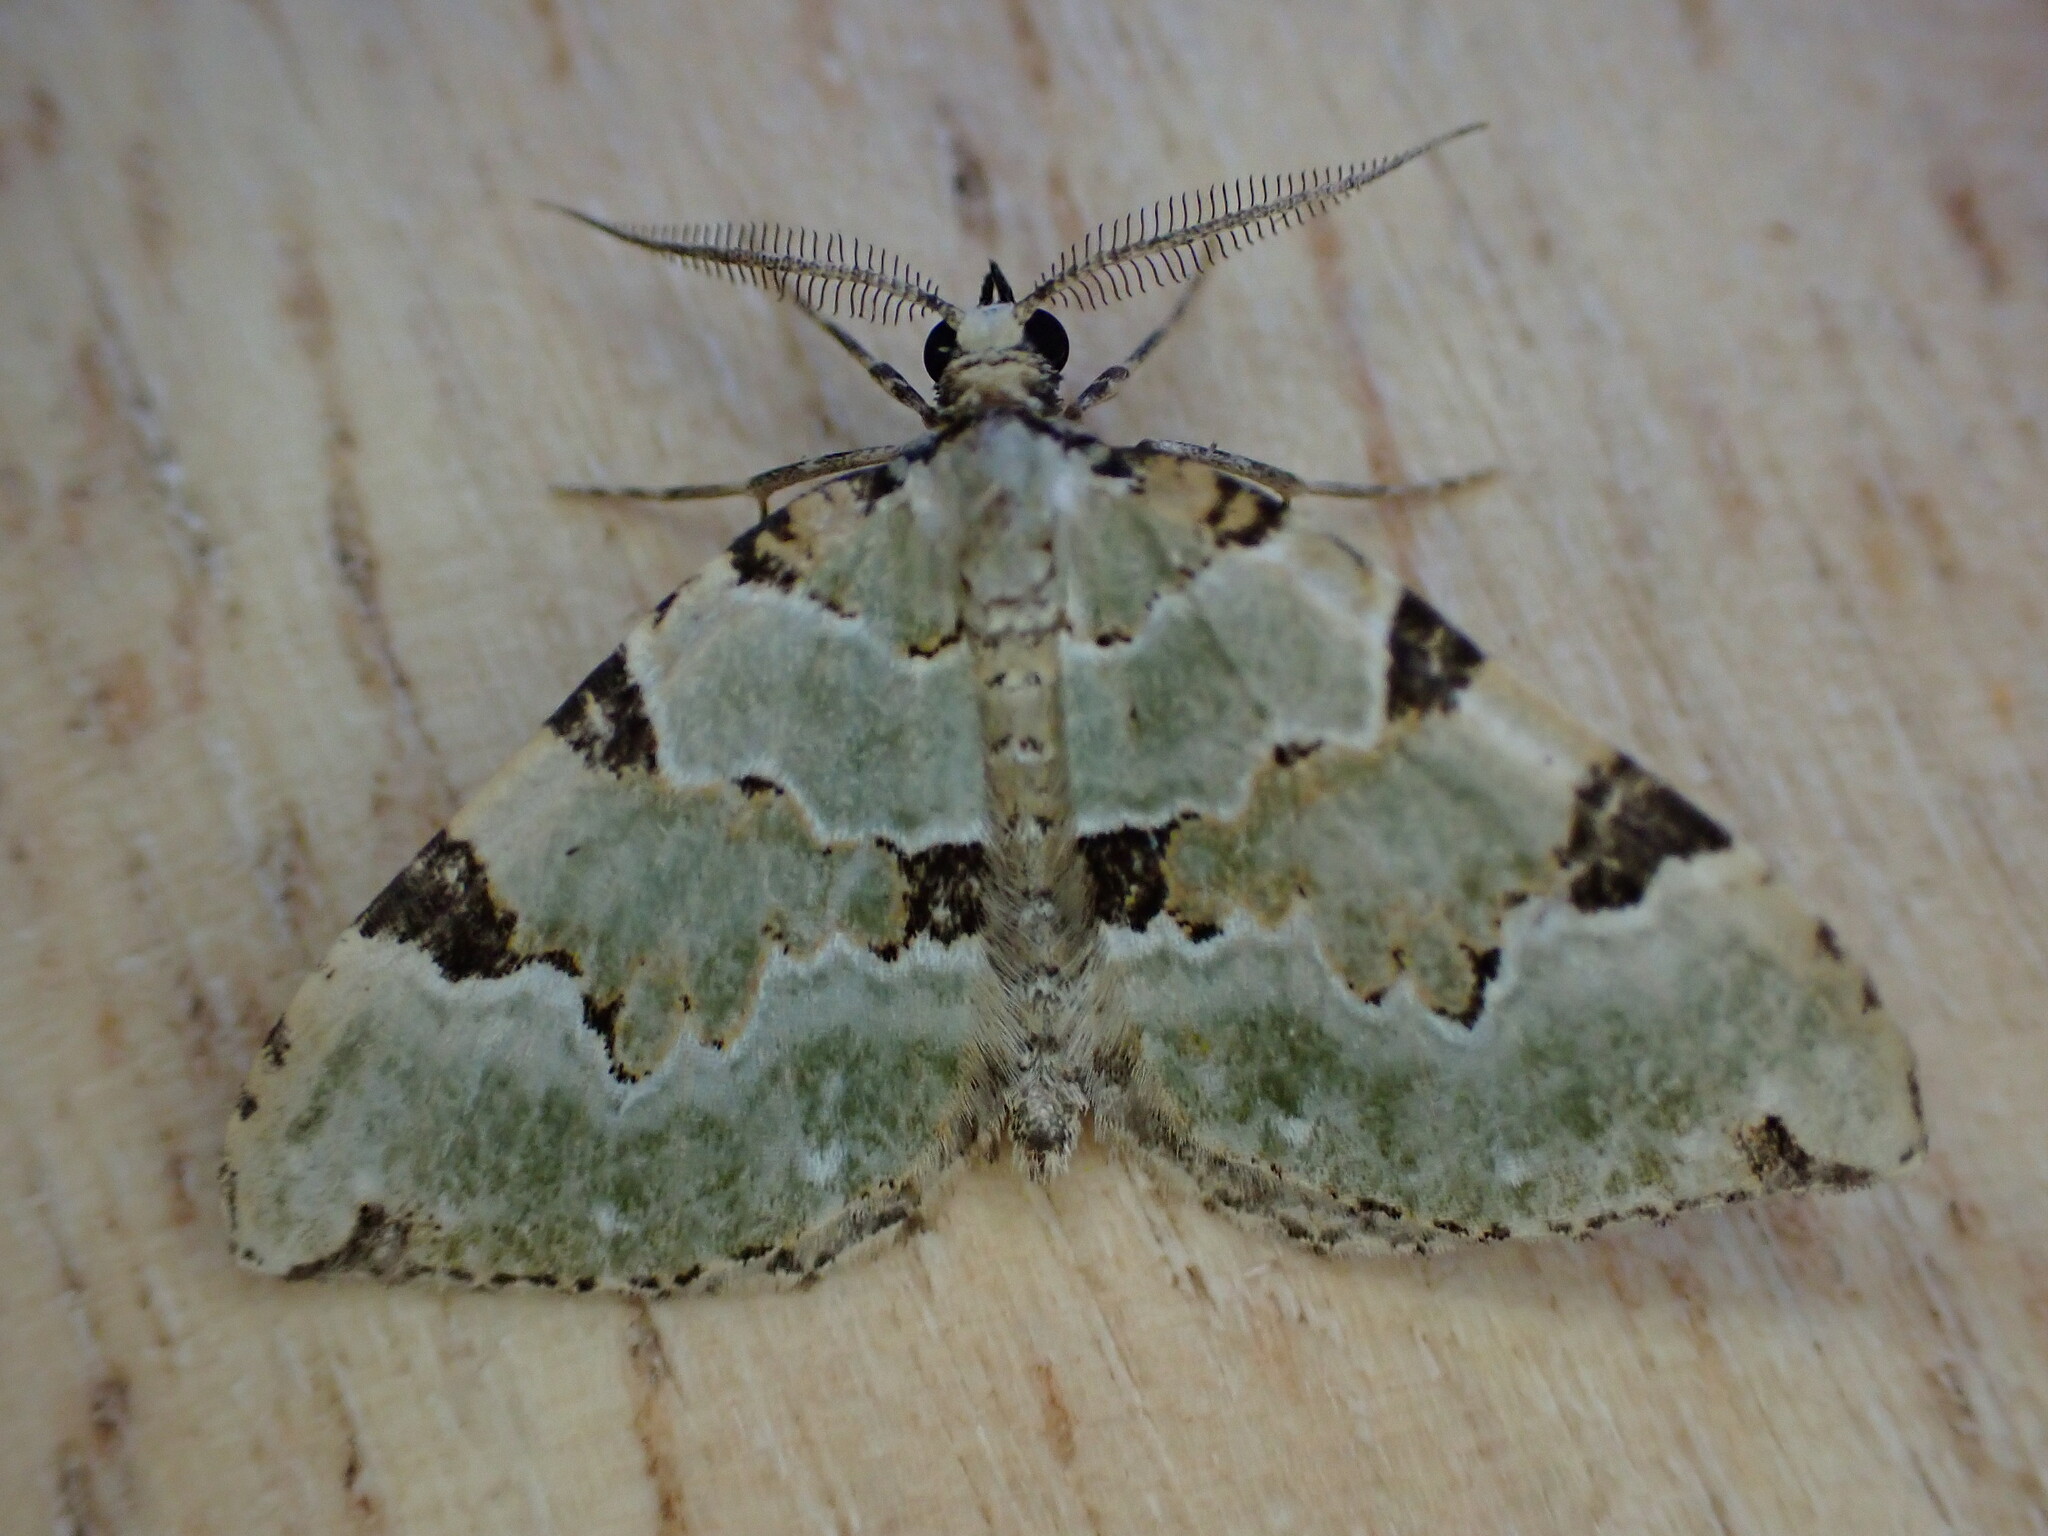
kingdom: Animalia
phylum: Arthropoda
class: Insecta
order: Lepidoptera
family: Geometridae
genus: Colostygia
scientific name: Colostygia pectinataria
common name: Green carpet
